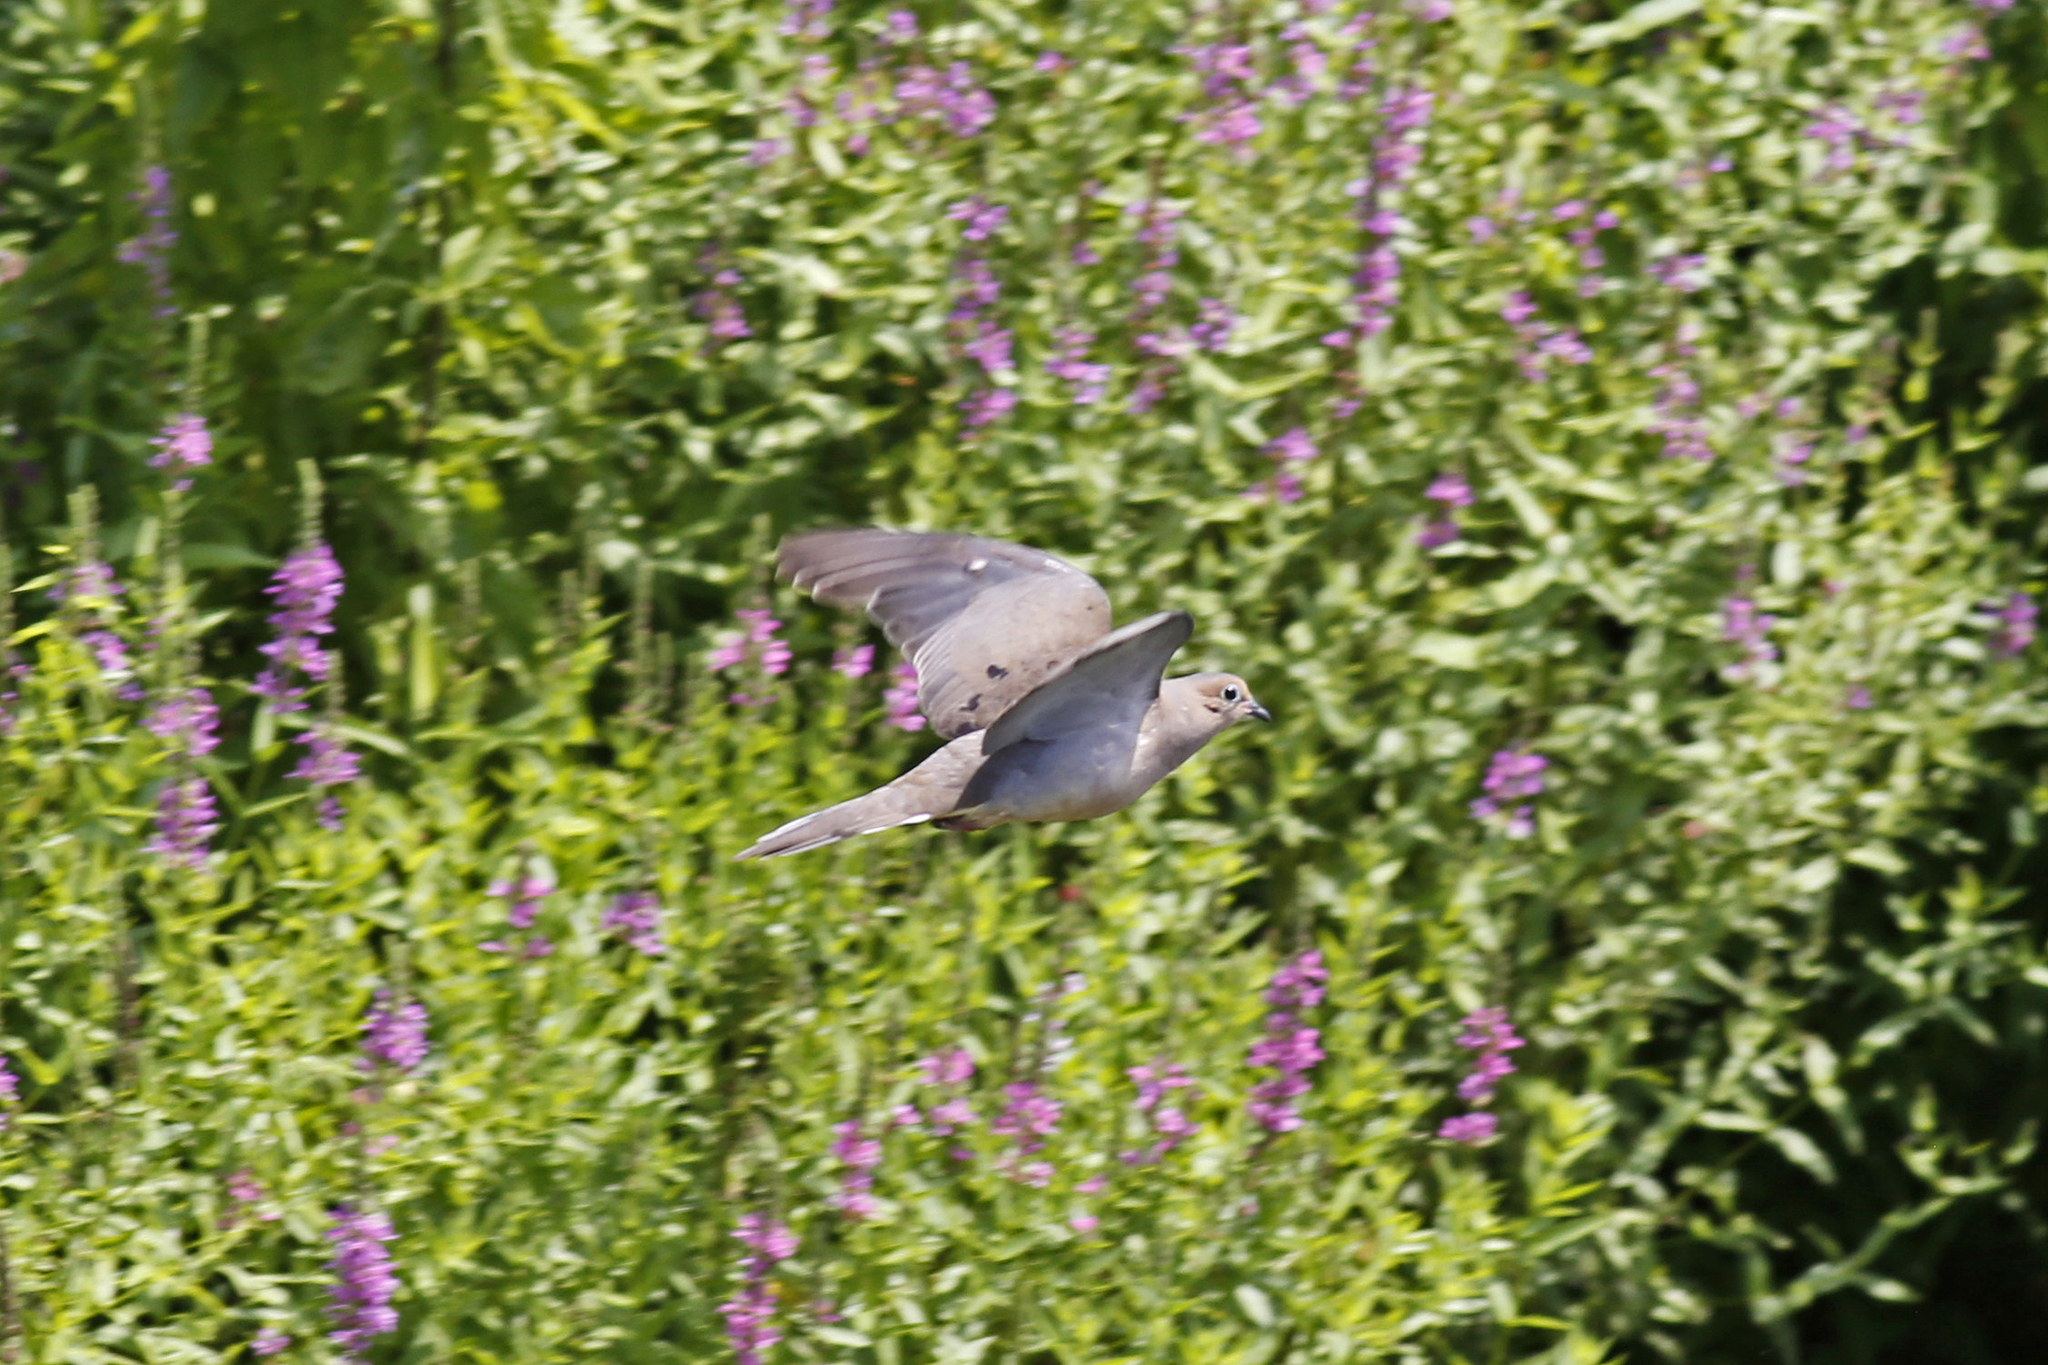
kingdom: Animalia
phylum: Chordata
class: Aves
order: Columbiformes
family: Columbidae
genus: Zenaida
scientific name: Zenaida macroura
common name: Mourning dove
